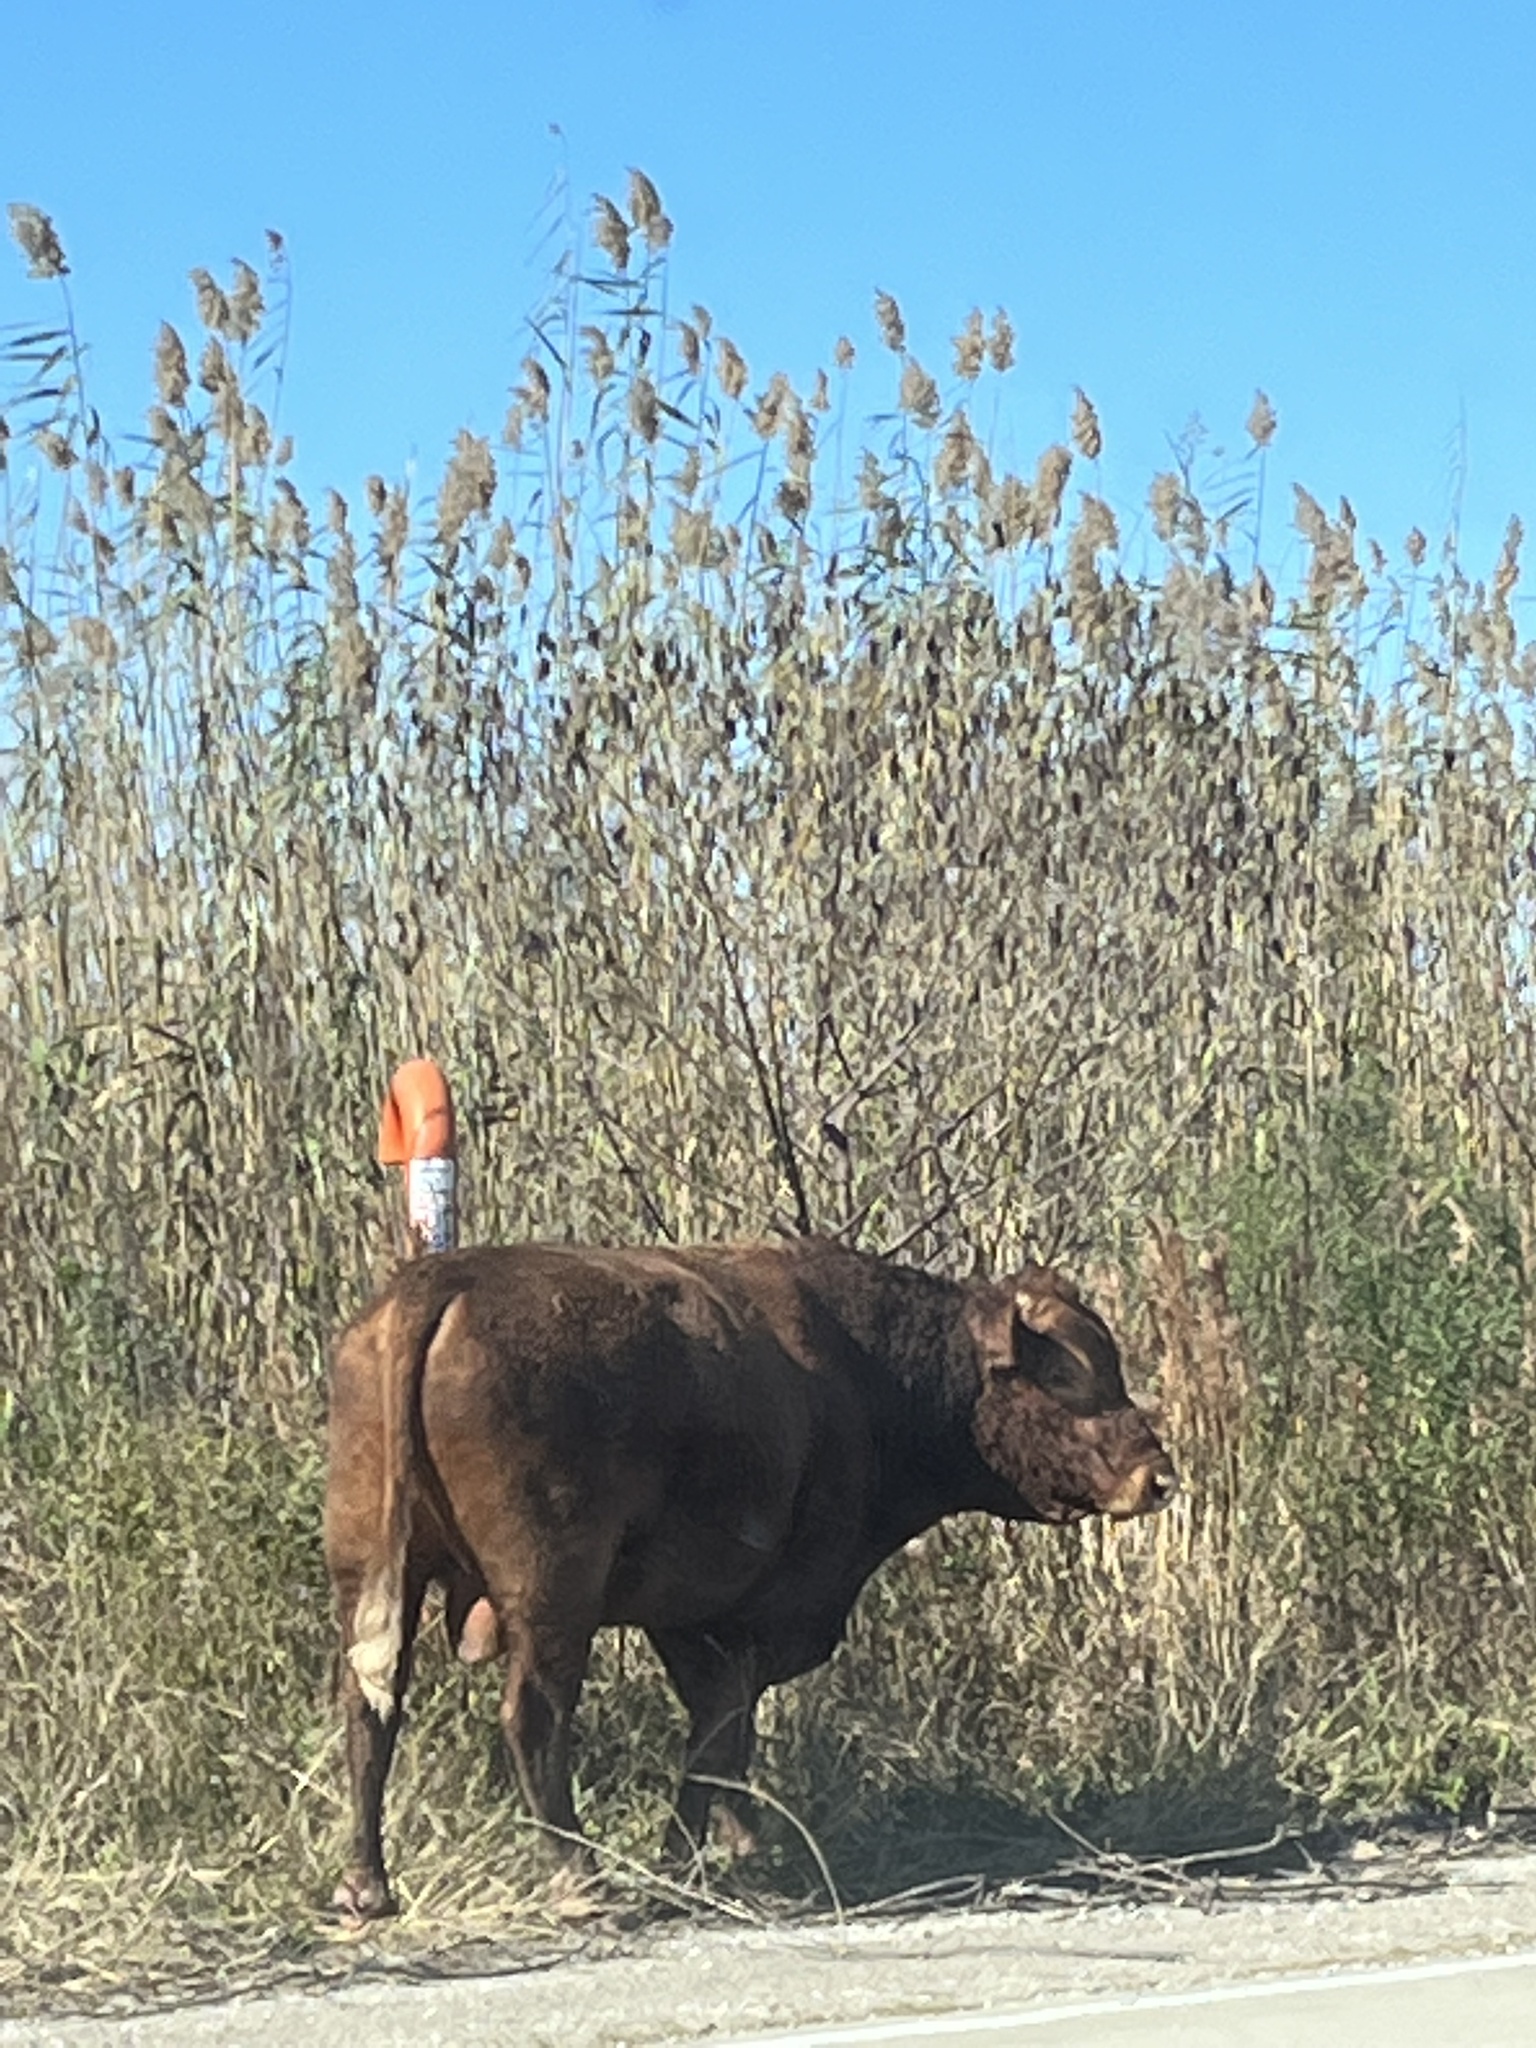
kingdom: Animalia
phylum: Chordata
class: Mammalia
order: Artiodactyla
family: Bovidae
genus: Bos
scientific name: Bos taurus
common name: Domesticated cattle
